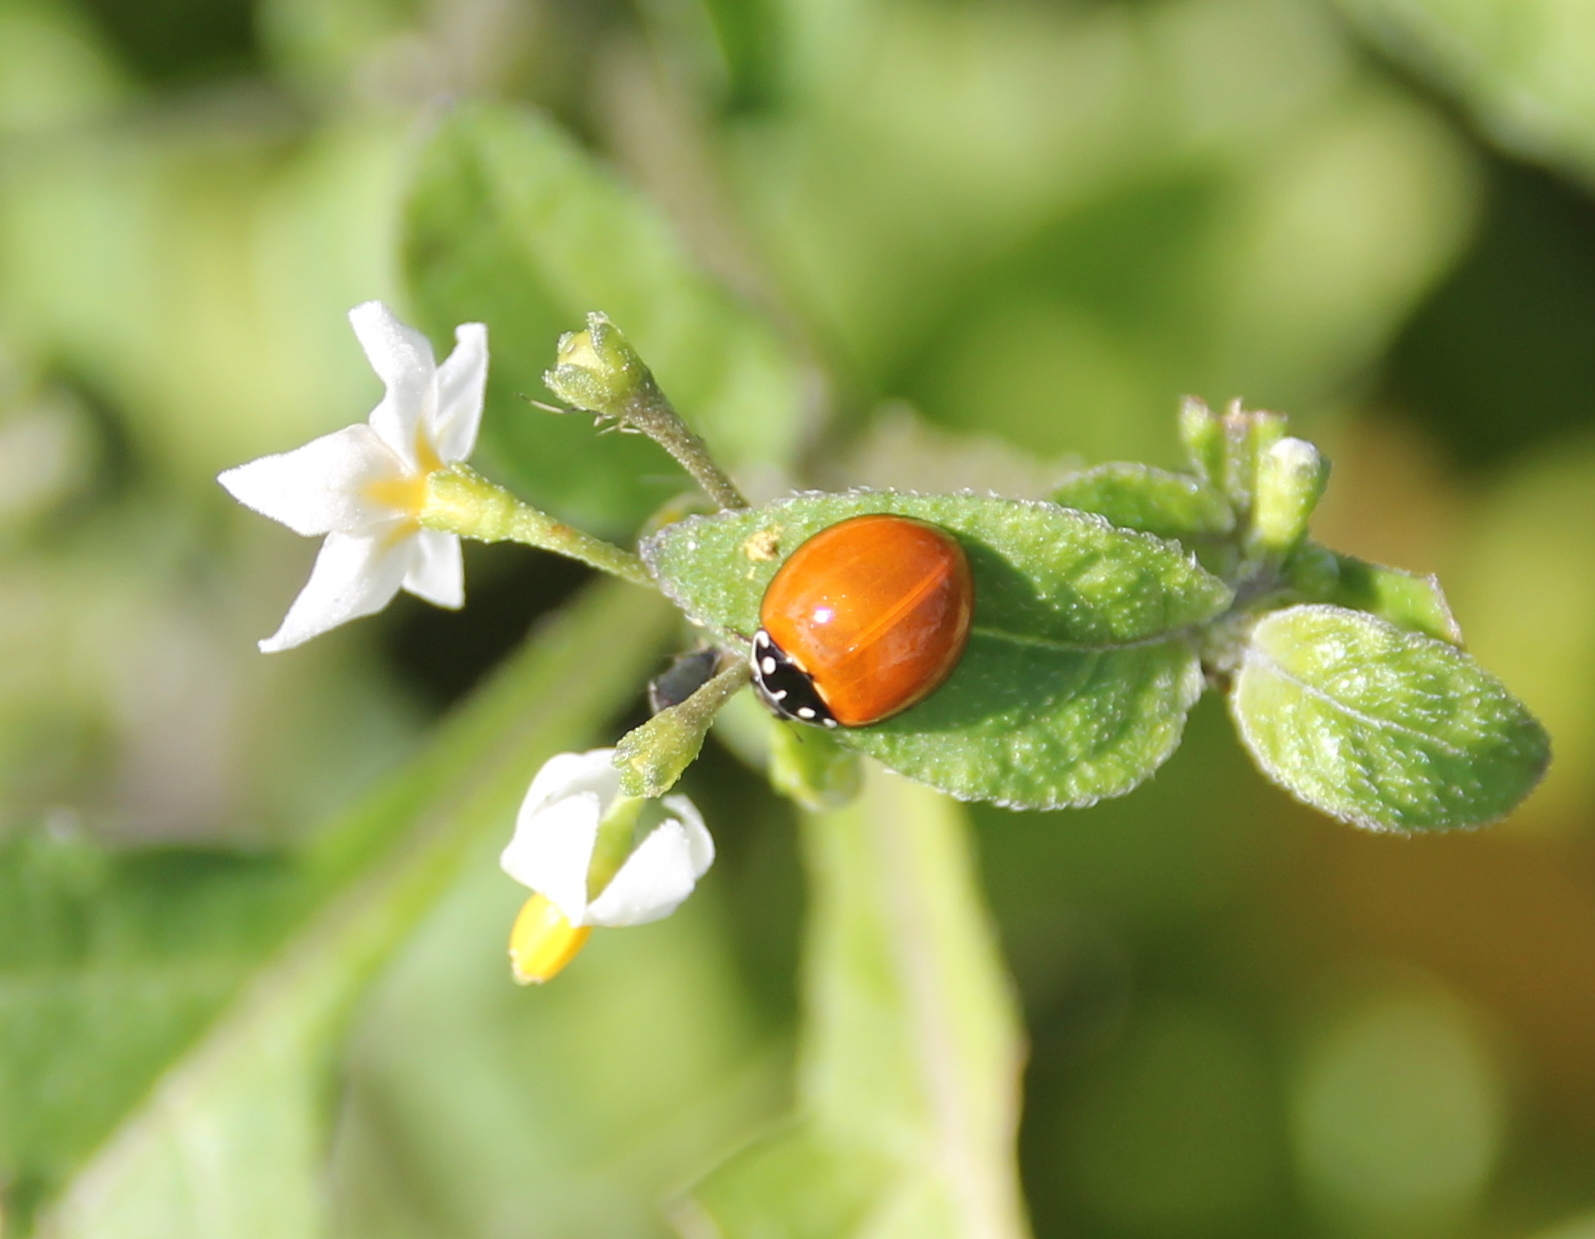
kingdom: Animalia
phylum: Arthropoda
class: Insecta
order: Coleoptera
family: Coccinellidae
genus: Cycloneda
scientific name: Cycloneda sanguinea
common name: Ladybird beetle
